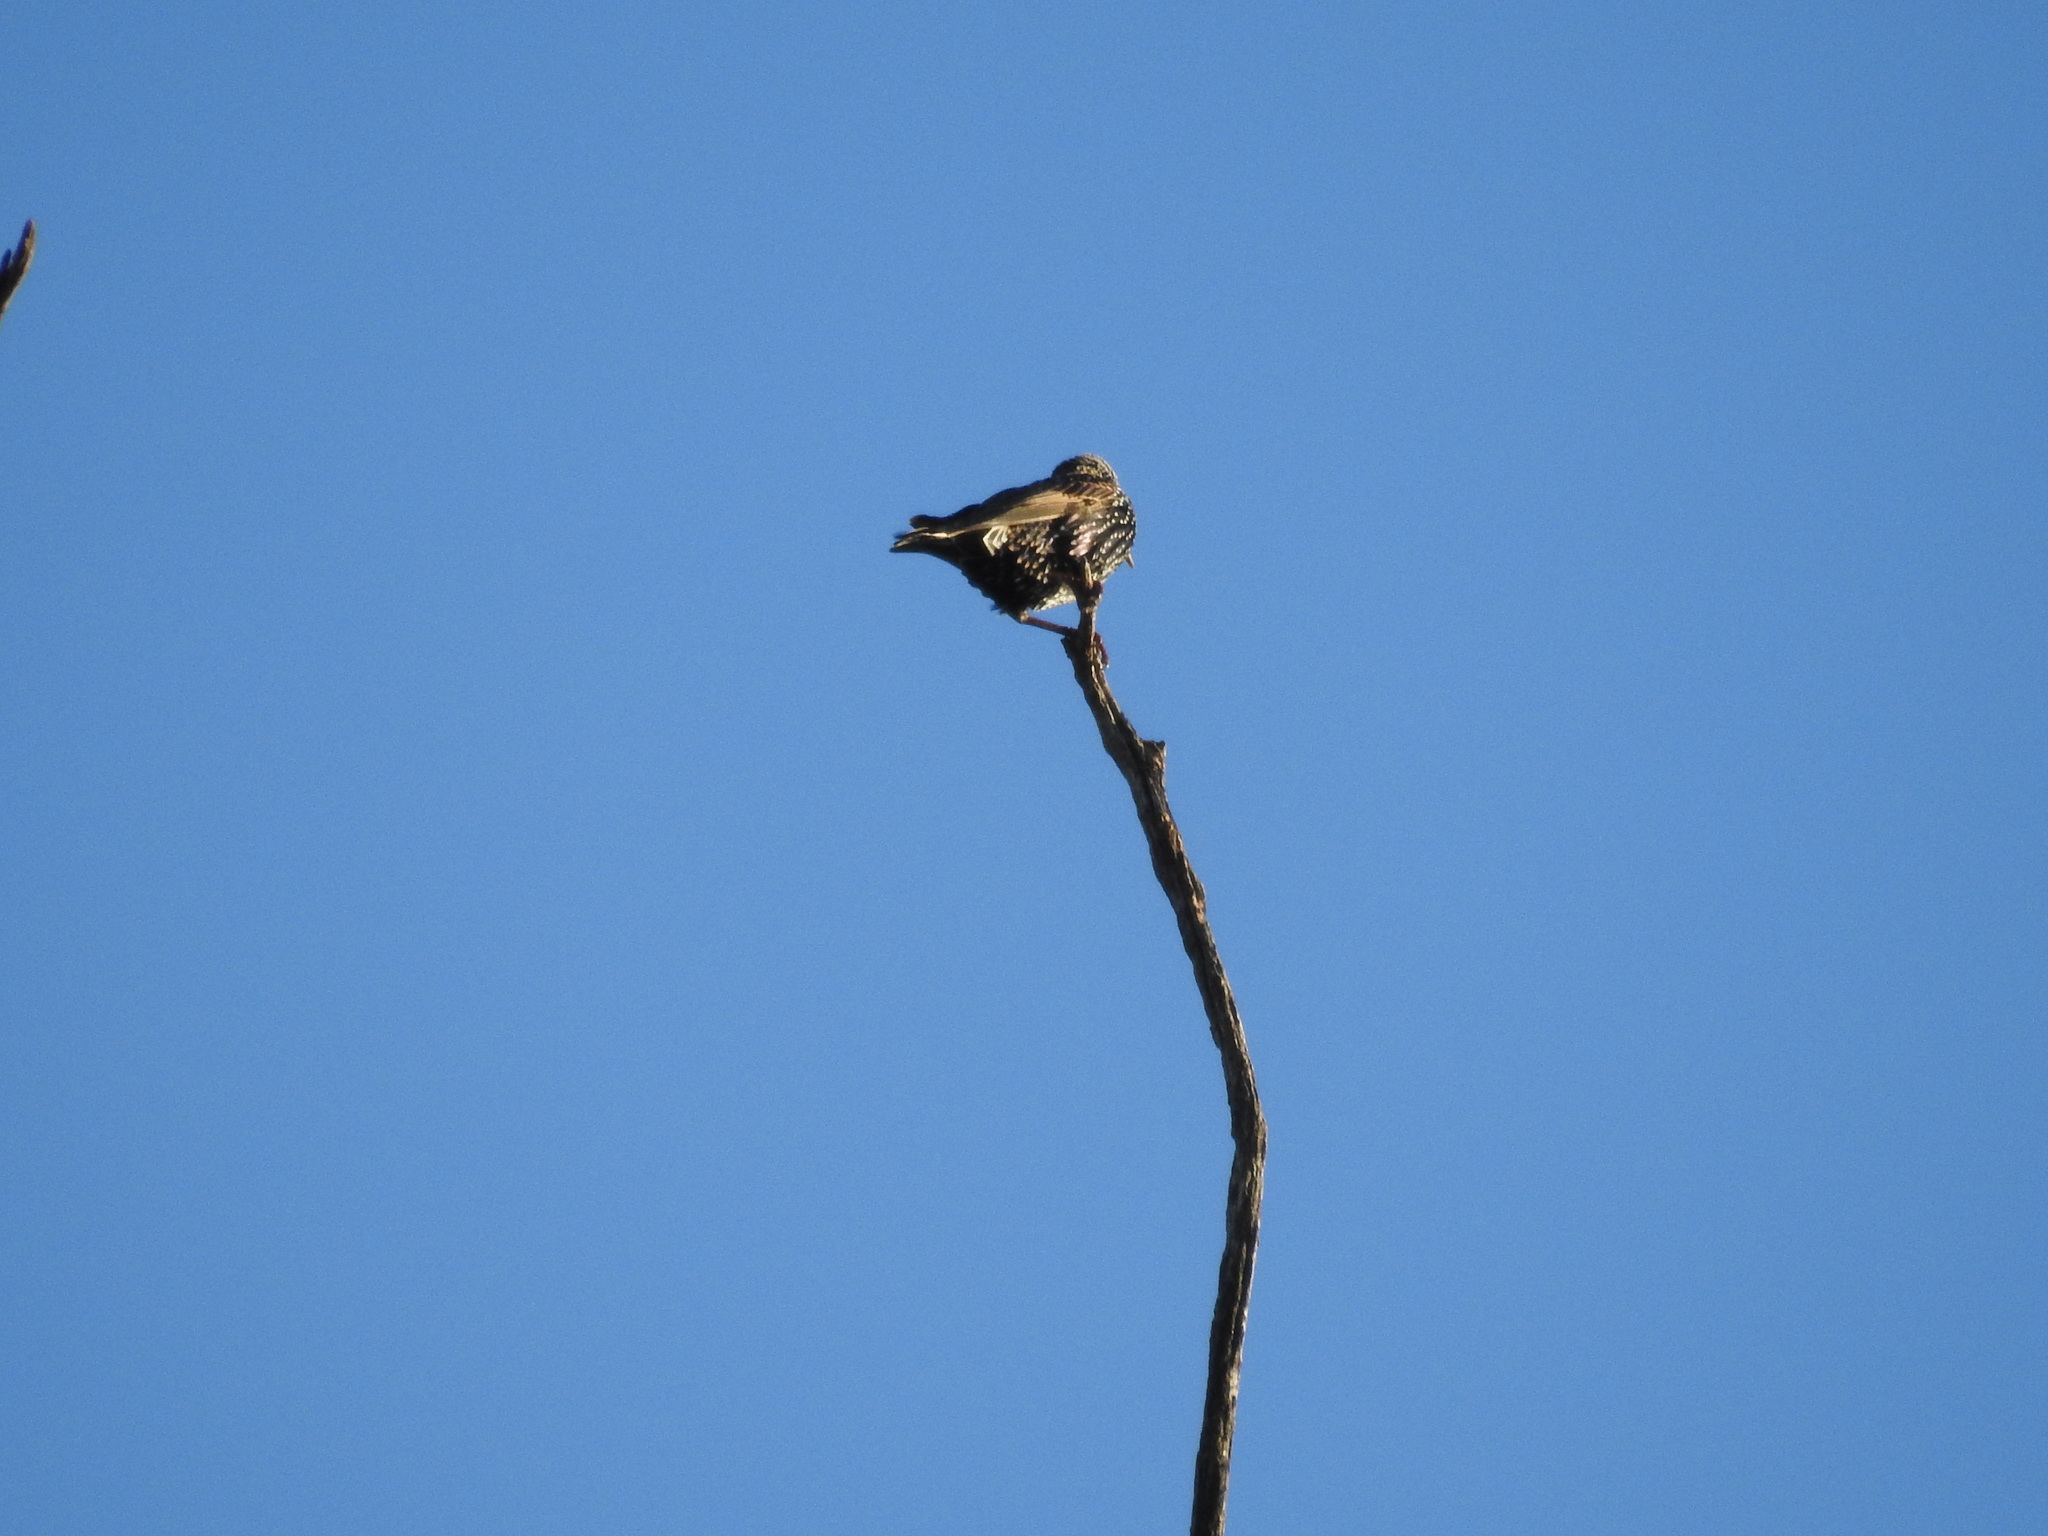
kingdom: Animalia
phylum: Chordata
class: Aves
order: Passeriformes
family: Sturnidae
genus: Sturnus
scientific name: Sturnus vulgaris
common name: Common starling
